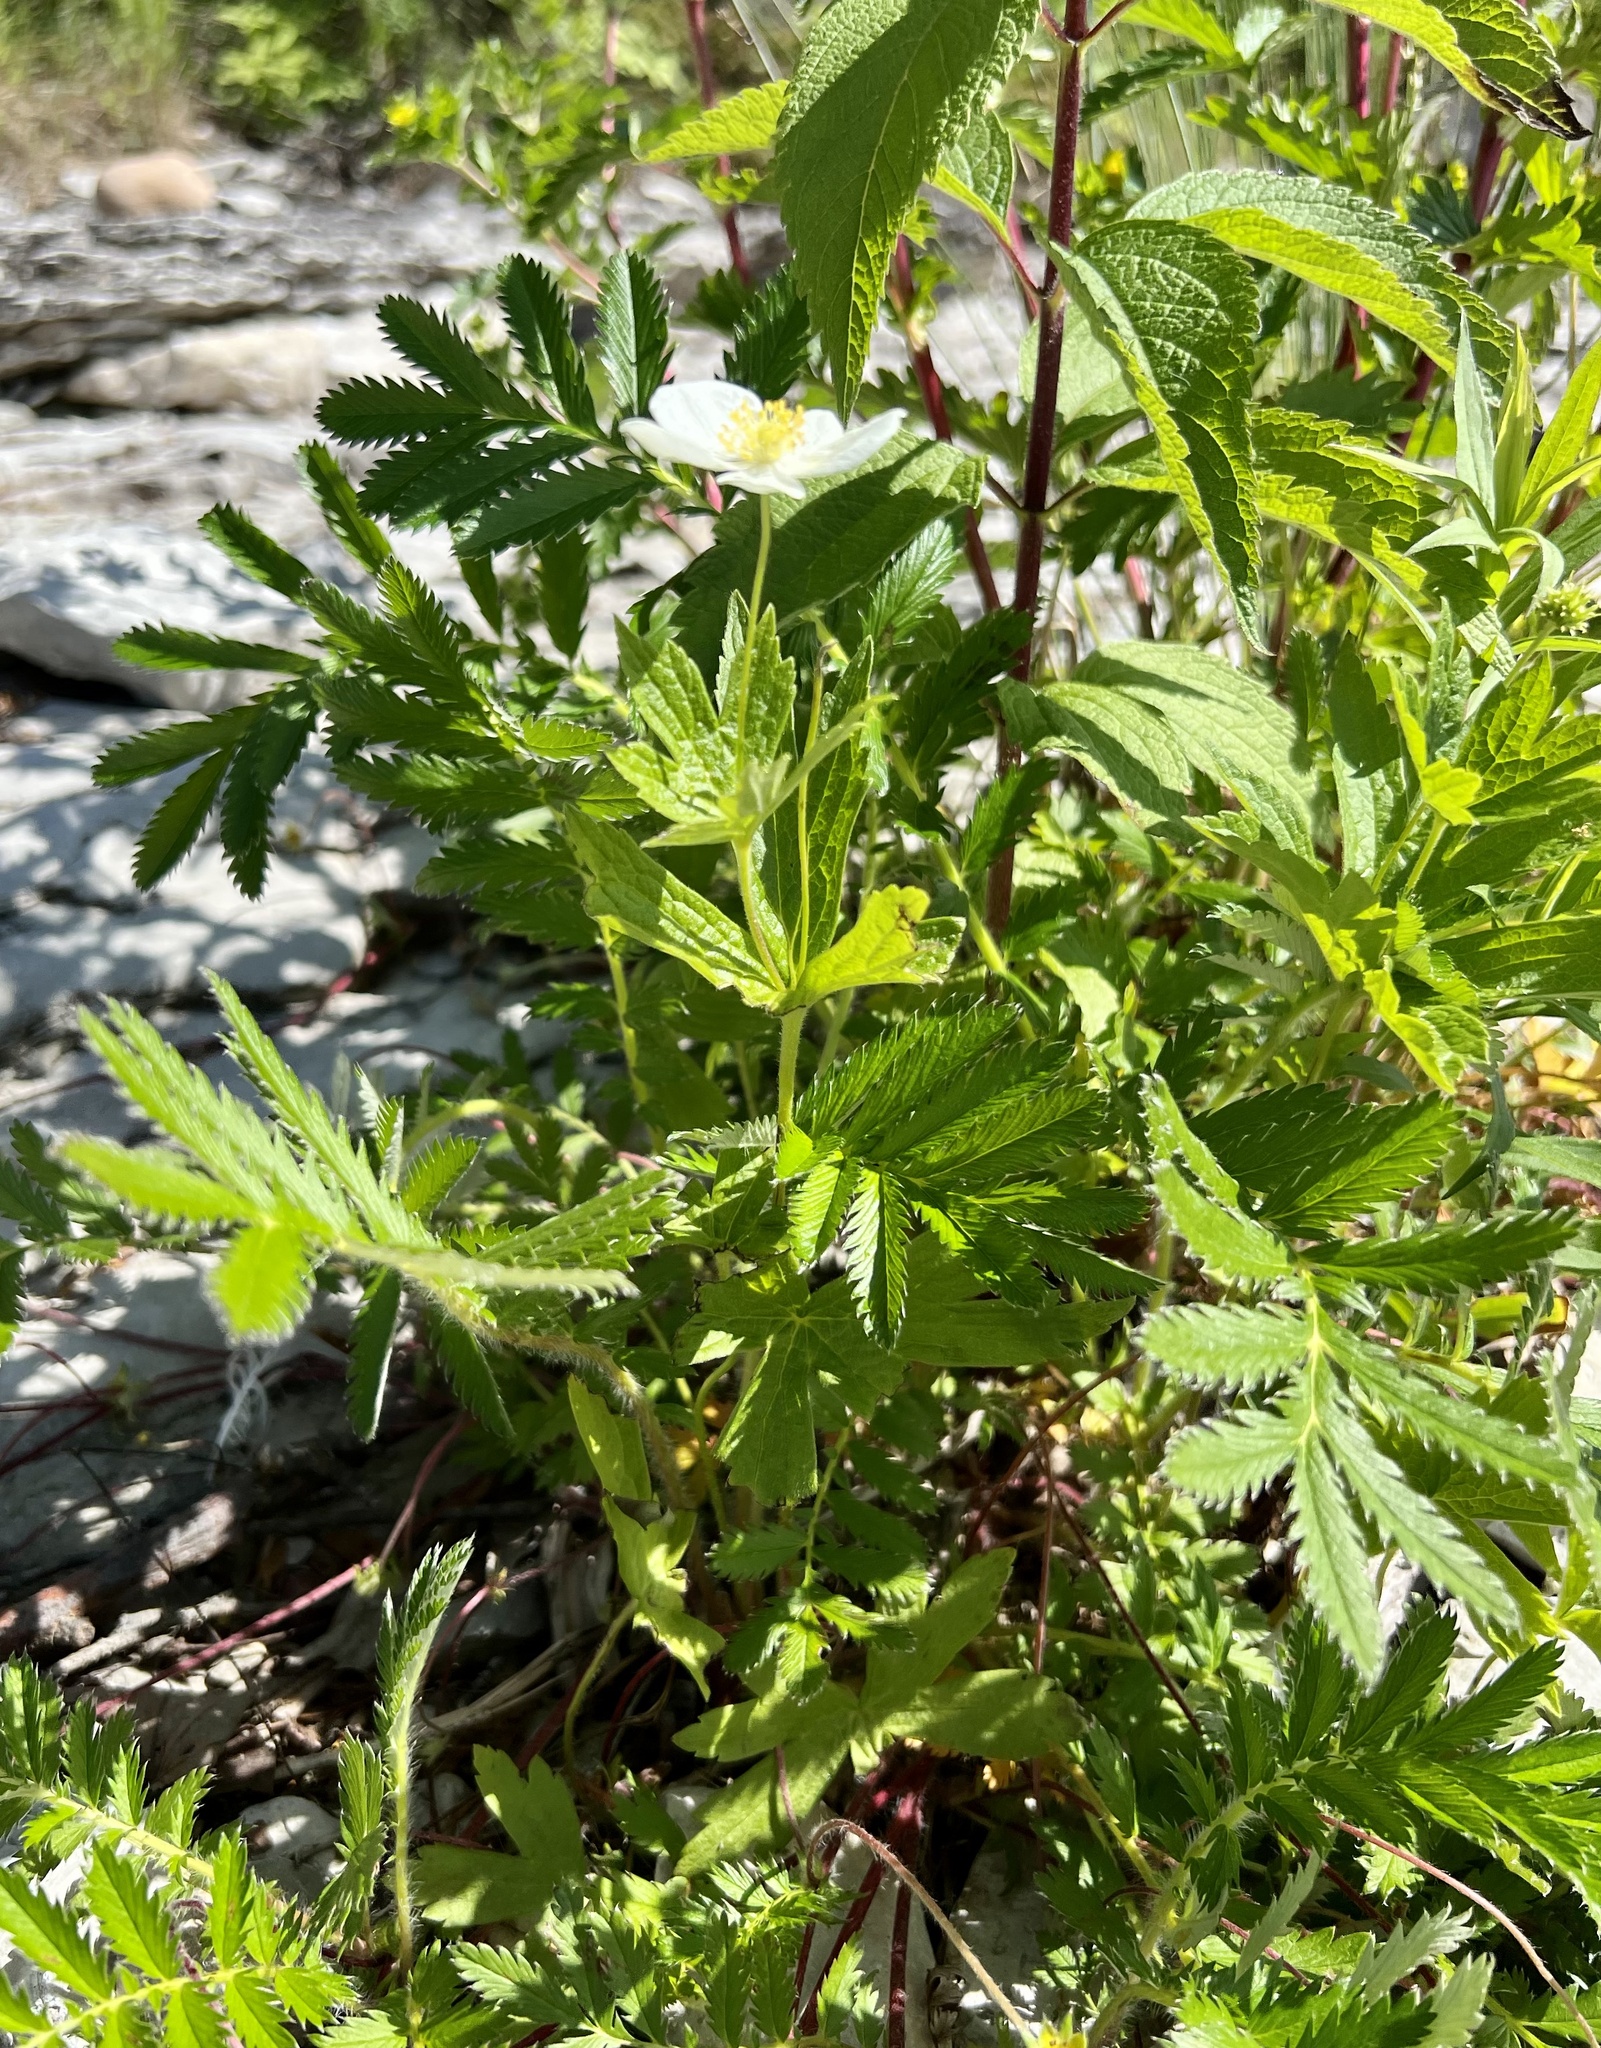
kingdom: Plantae
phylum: Tracheophyta
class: Magnoliopsida
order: Ranunculales
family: Ranunculaceae
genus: Anemonastrum
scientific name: Anemonastrum canadense
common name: Canada anemone
